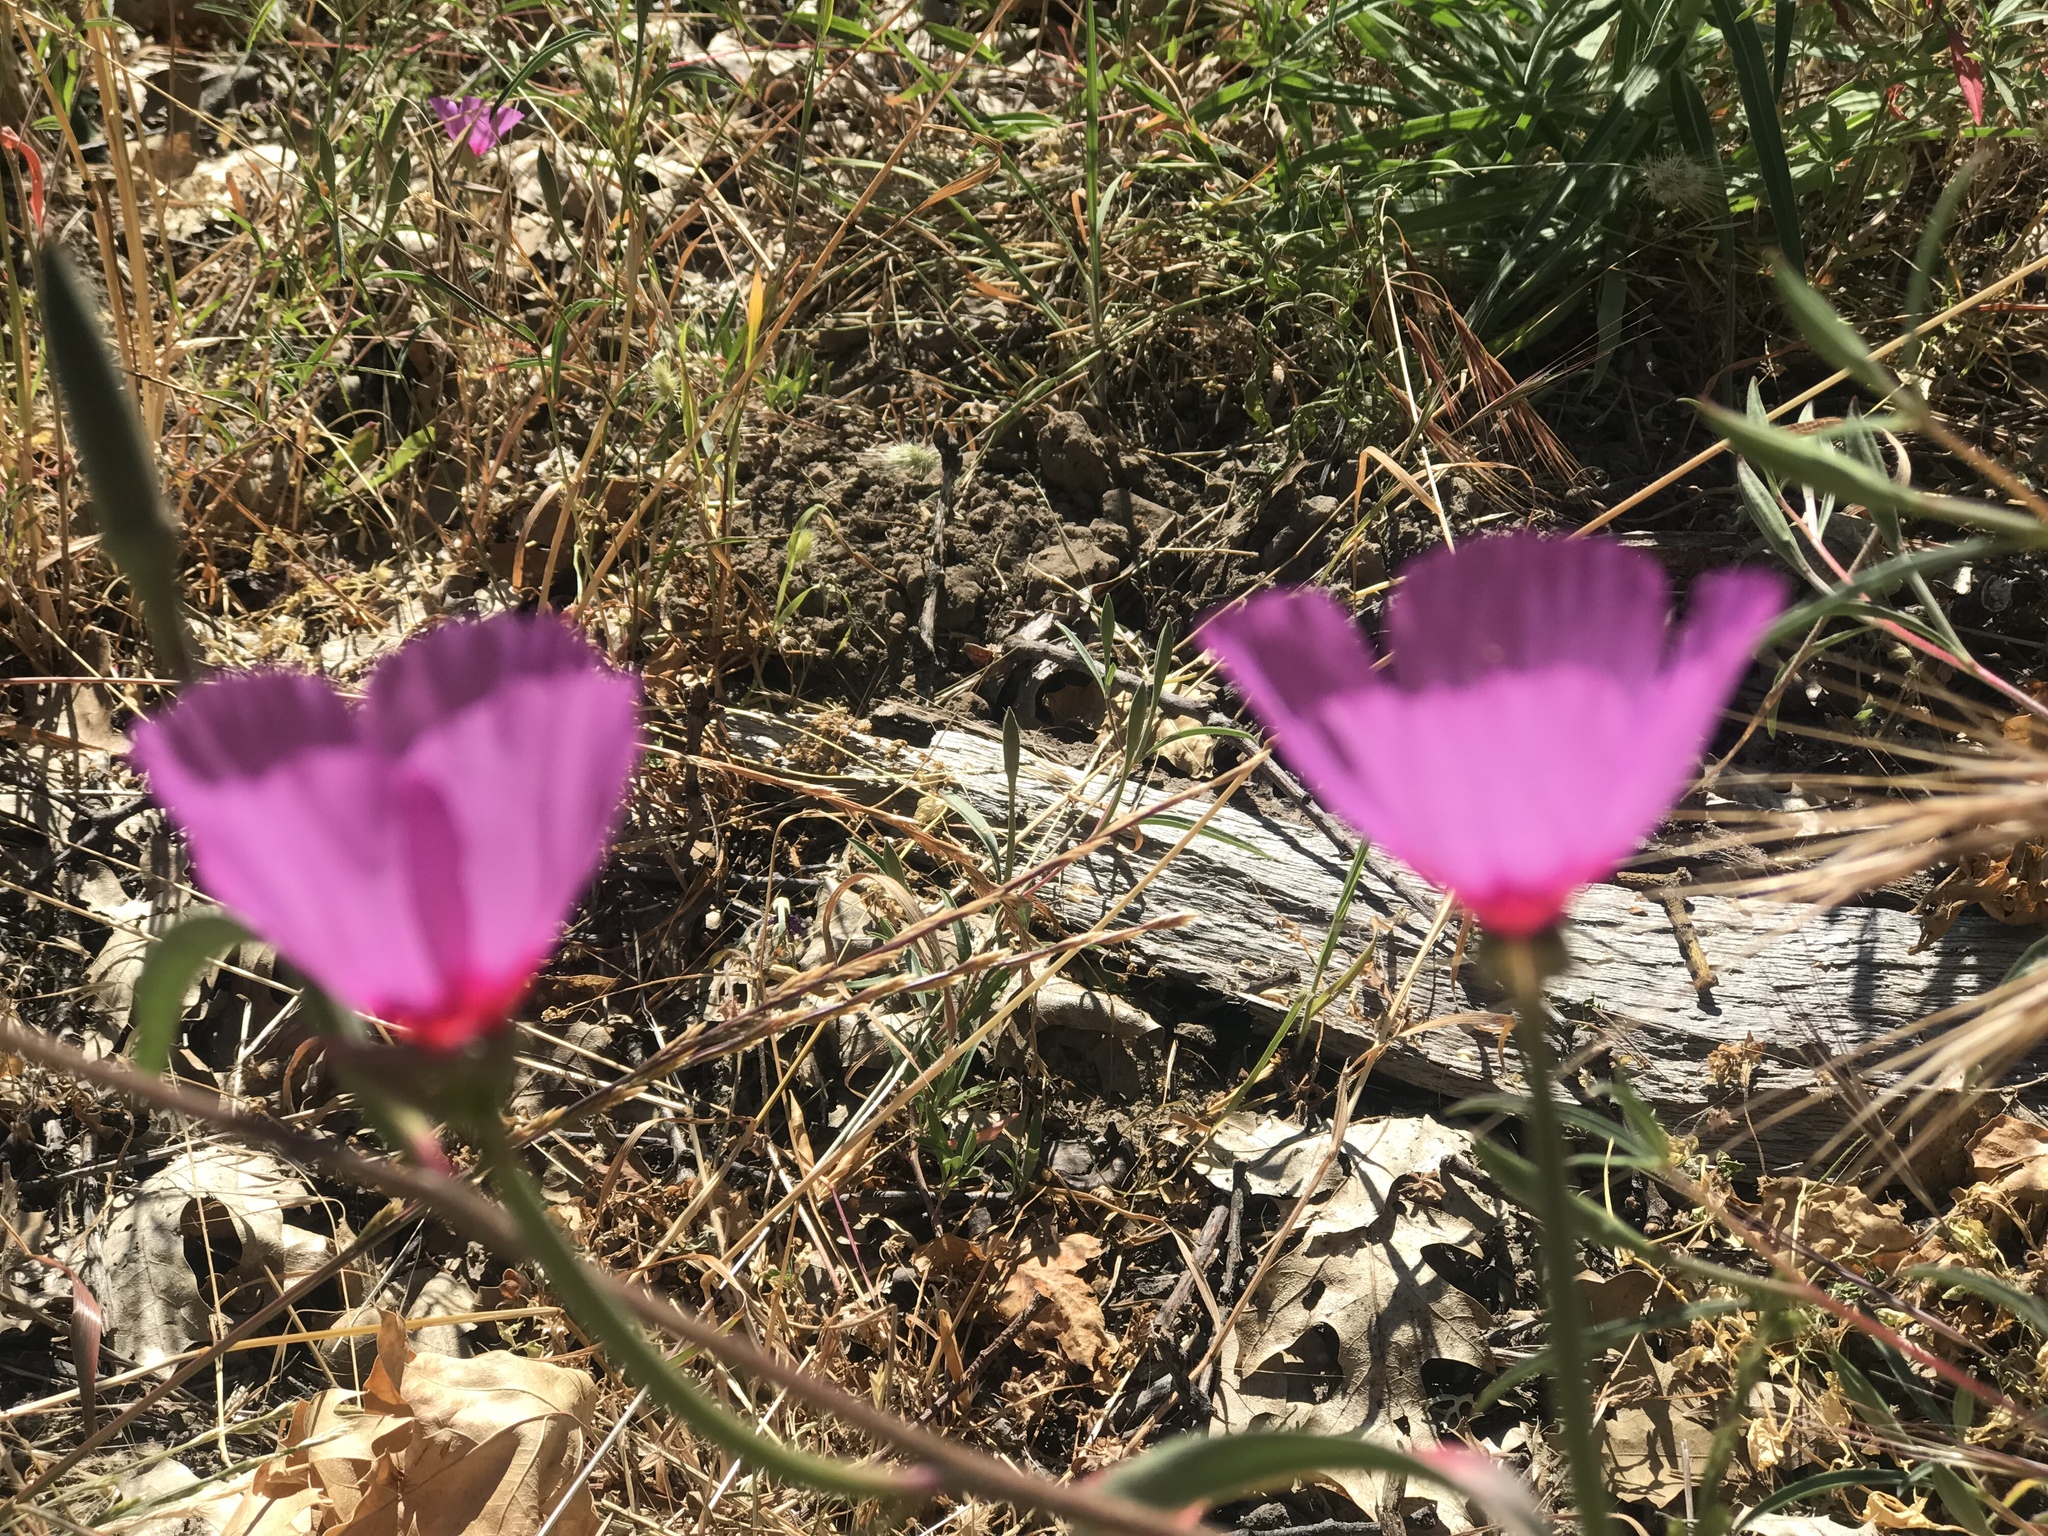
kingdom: Plantae
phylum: Tracheophyta
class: Magnoliopsida
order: Myrtales
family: Onagraceae
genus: Clarkia
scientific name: Clarkia rubicunda
